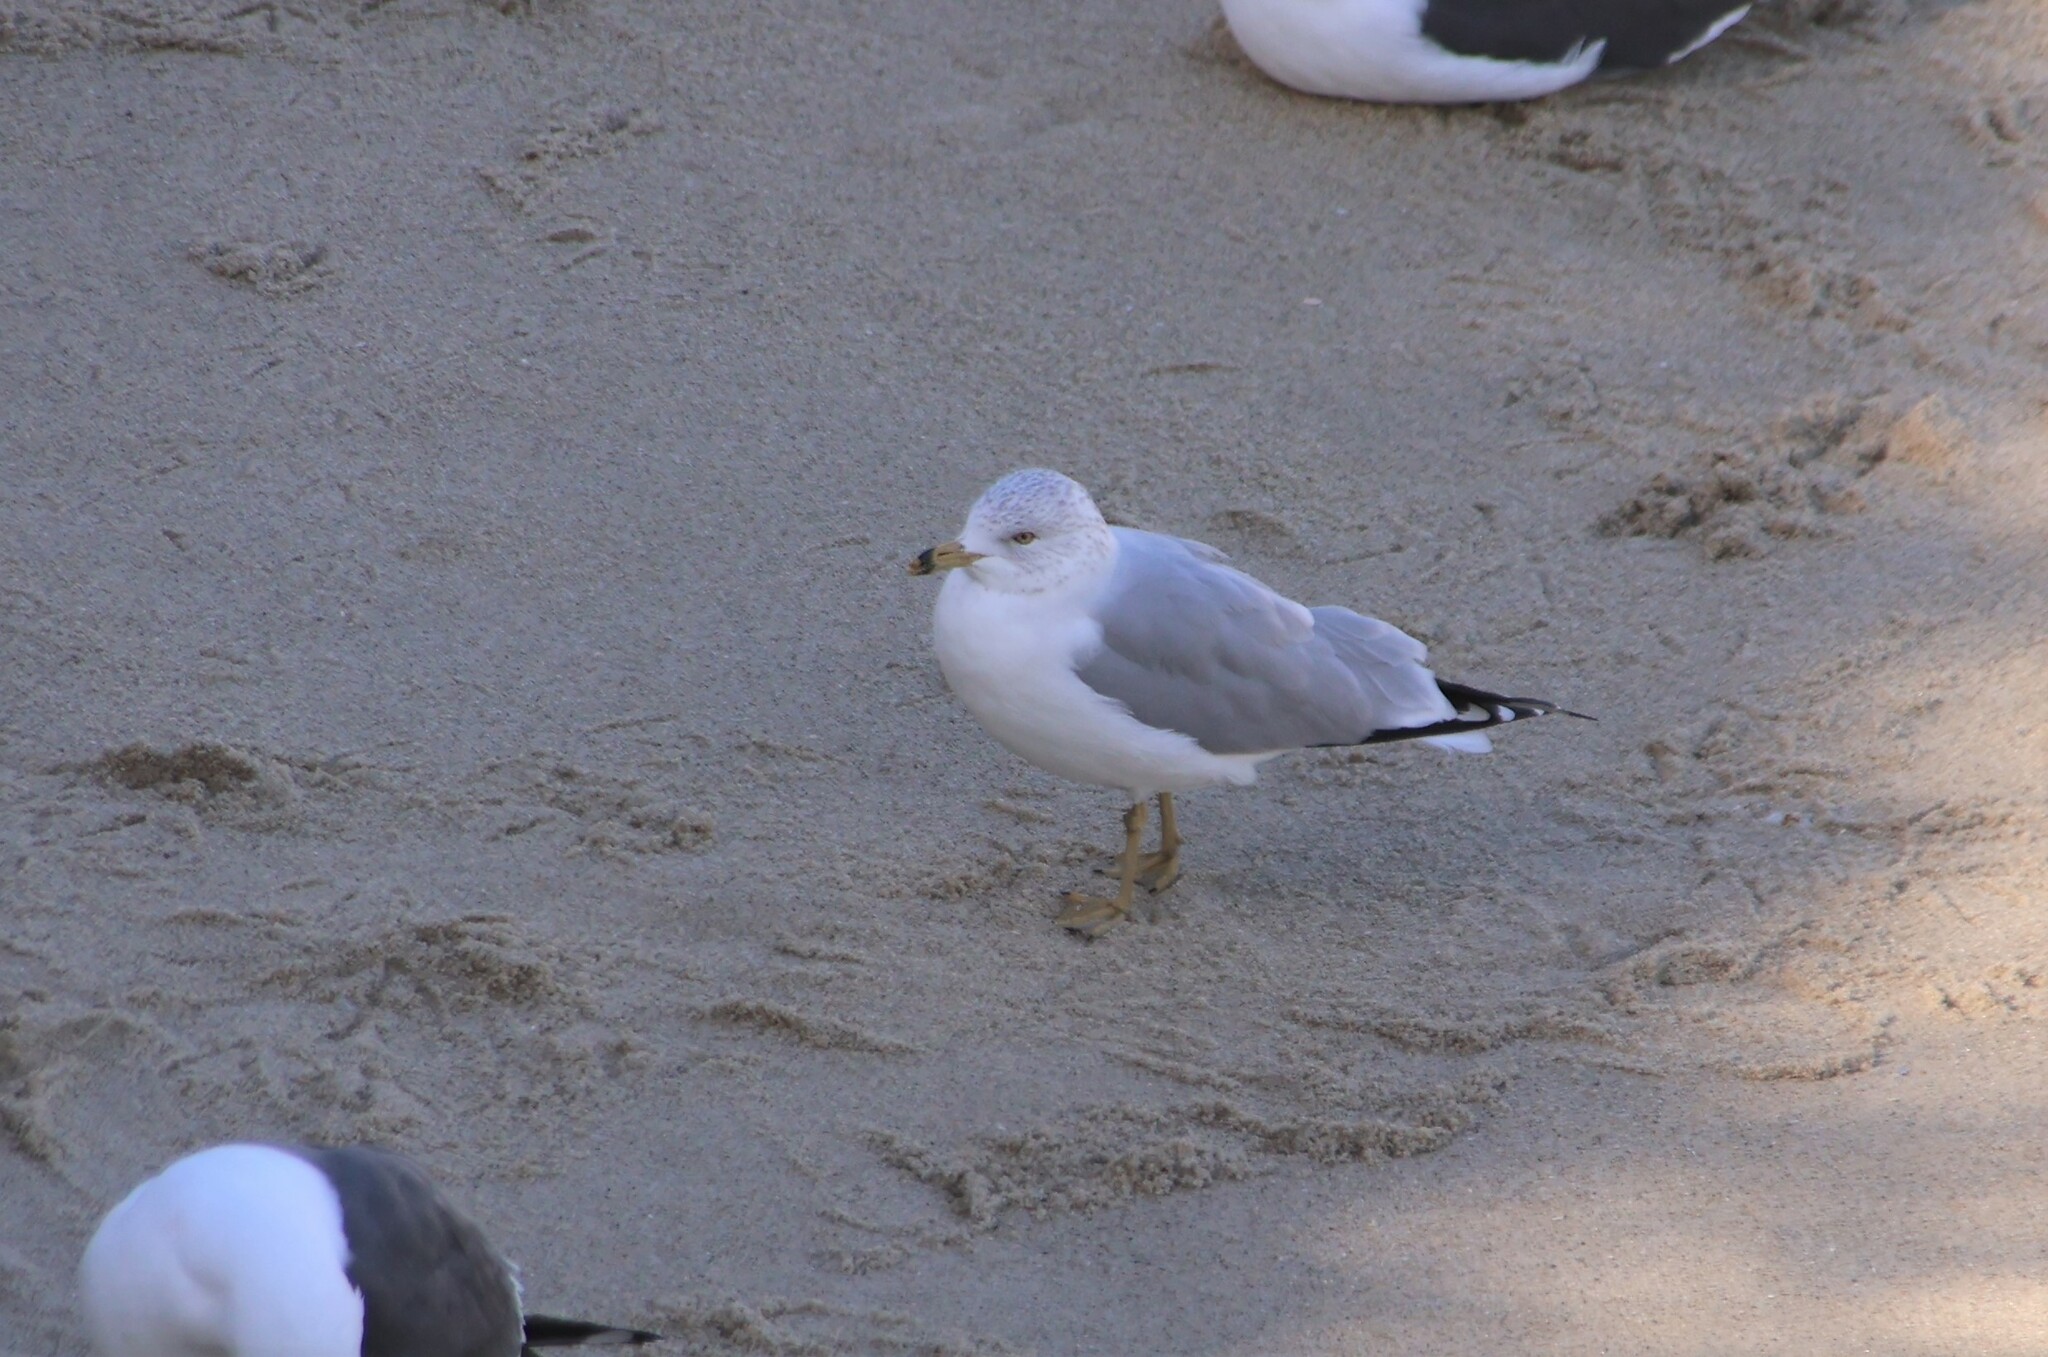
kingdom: Animalia
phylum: Chordata
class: Aves
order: Charadriiformes
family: Laridae
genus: Larus
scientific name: Larus delawarensis
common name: Ring-billed gull
